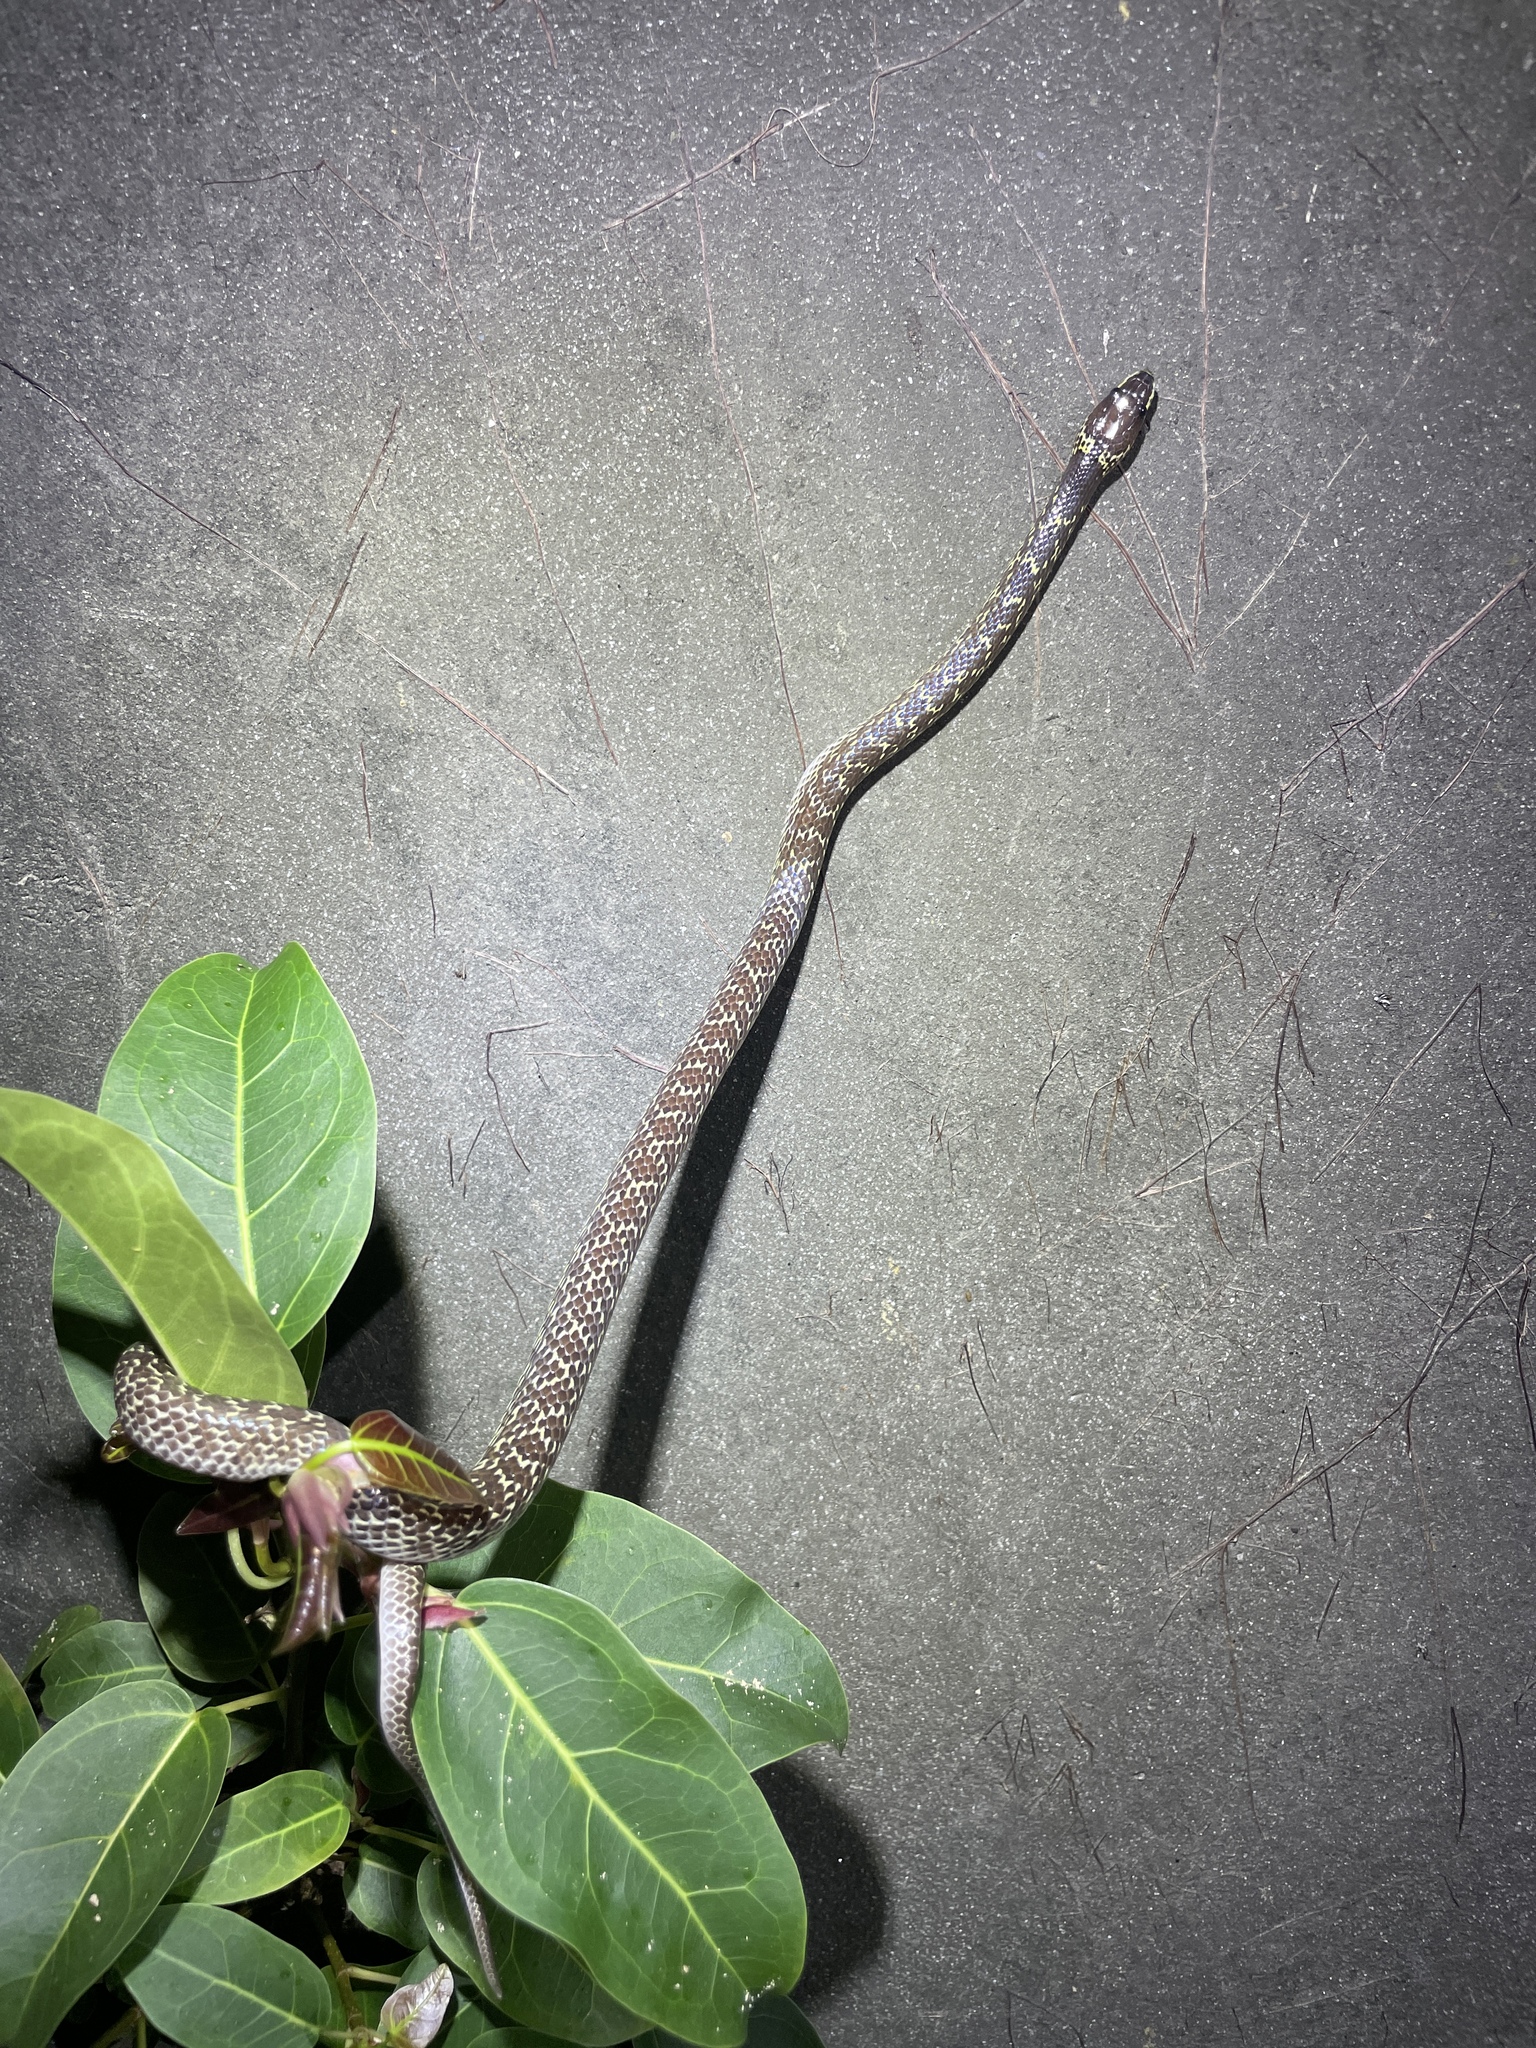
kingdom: Animalia
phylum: Chordata
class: Squamata
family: Colubridae
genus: Lycodon
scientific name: Lycodon capucinus
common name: Common wold snake/house snake
